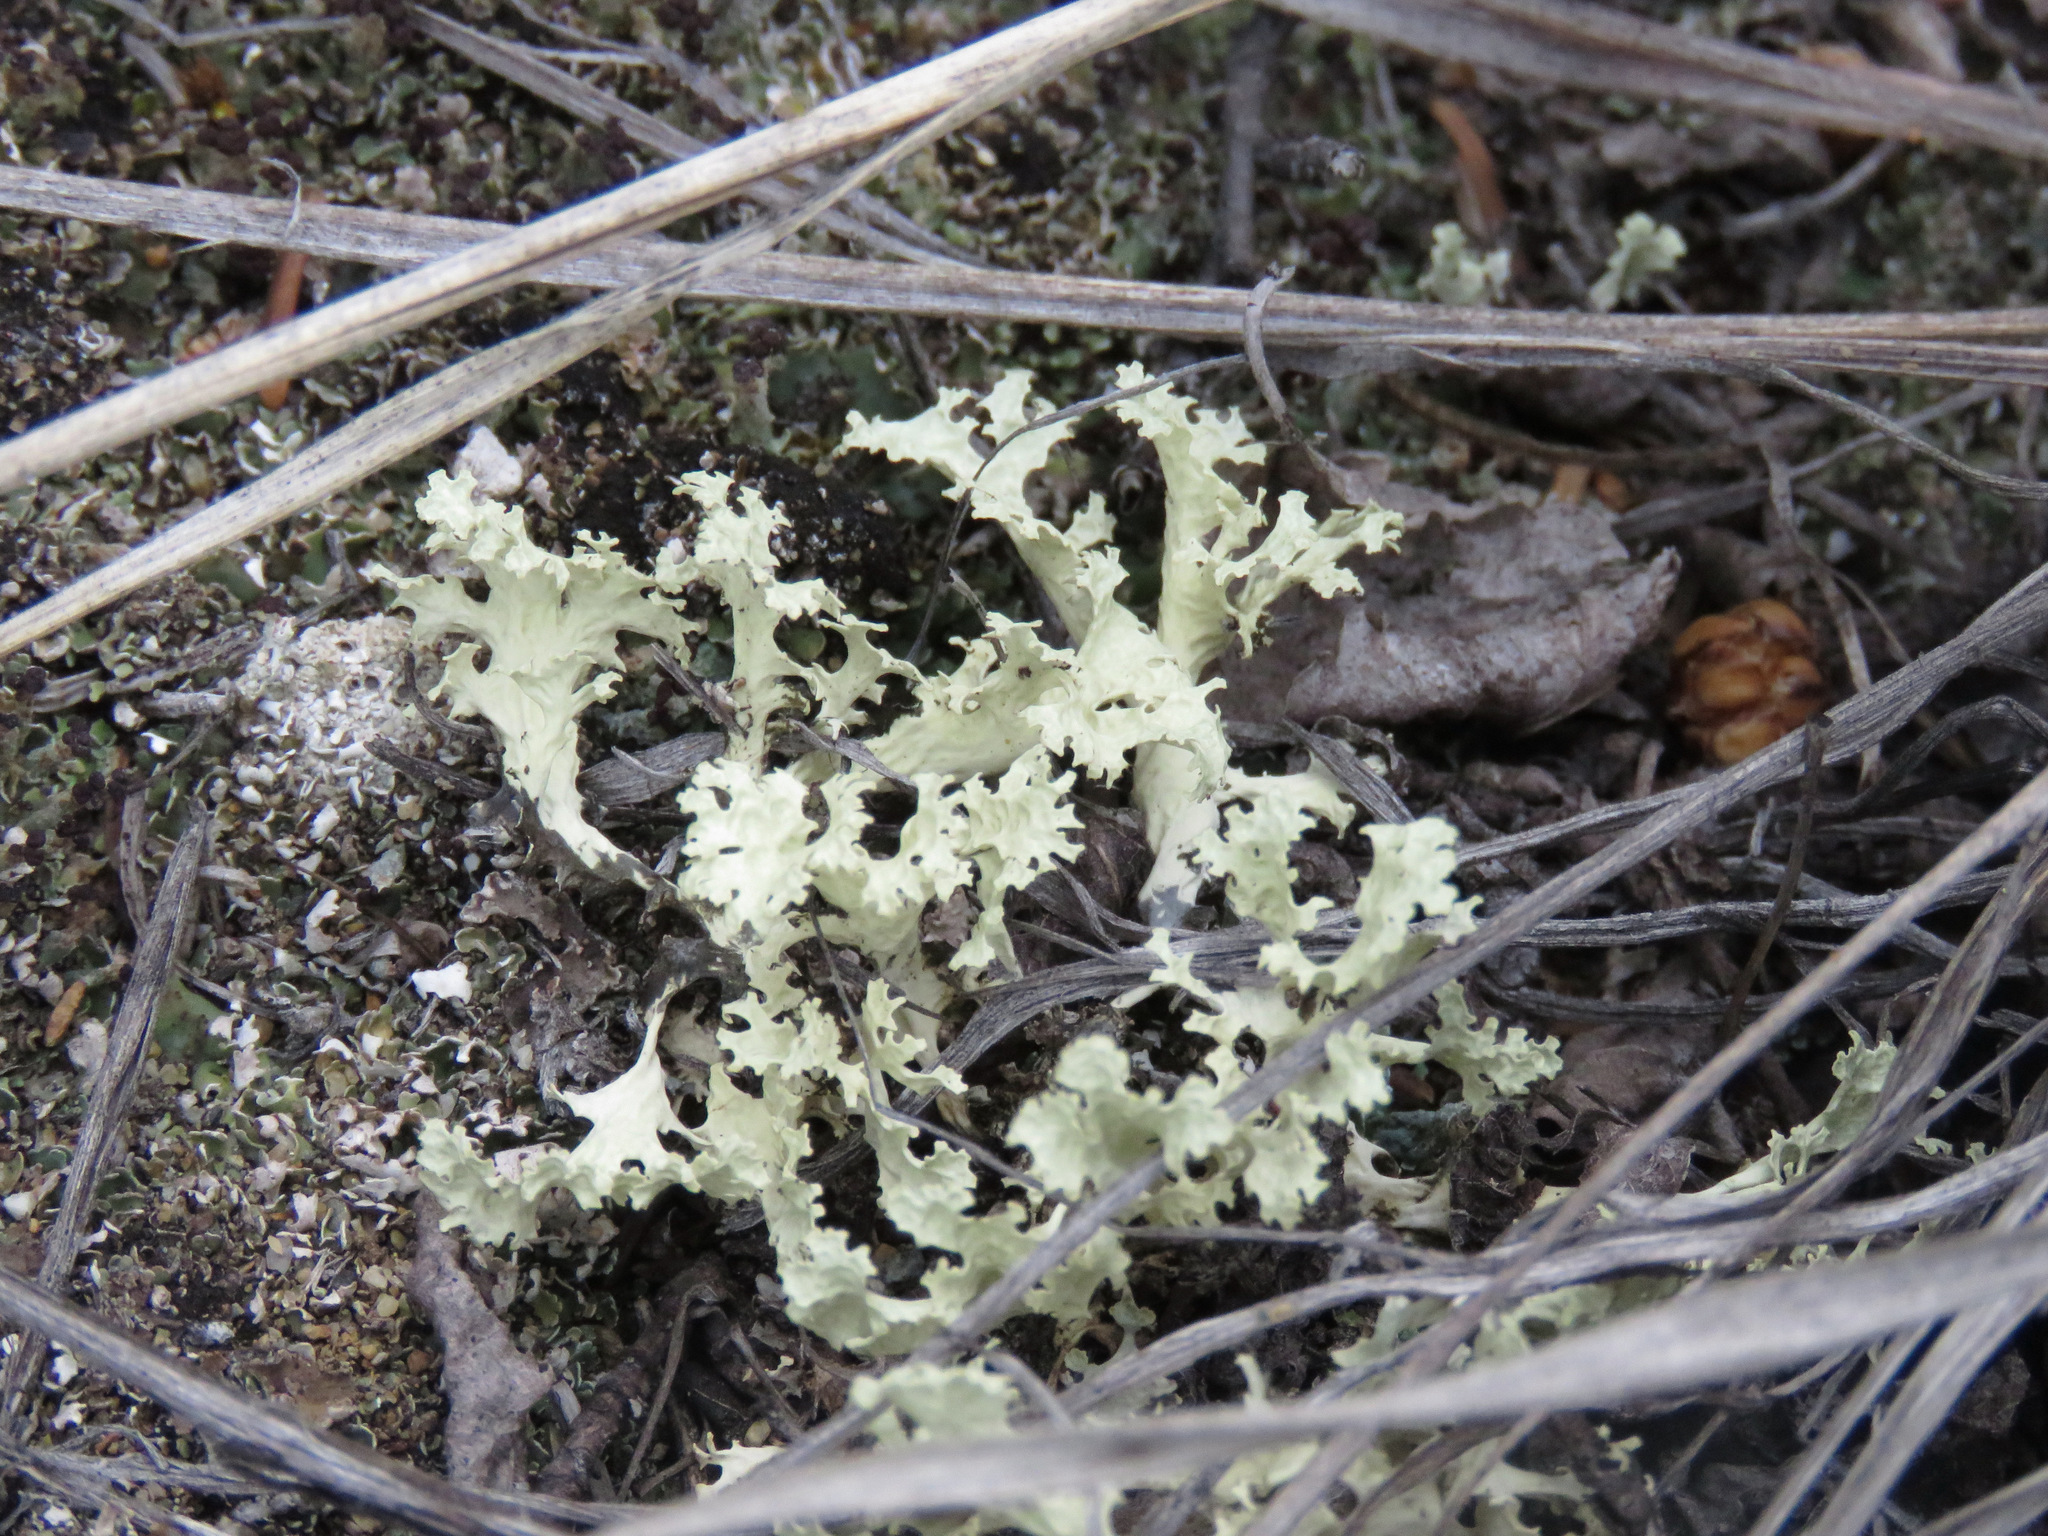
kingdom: Fungi
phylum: Ascomycota
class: Lecanoromycetes
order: Lecanorales
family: Parmeliaceae
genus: Nephromopsis
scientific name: Nephromopsis nivalis
